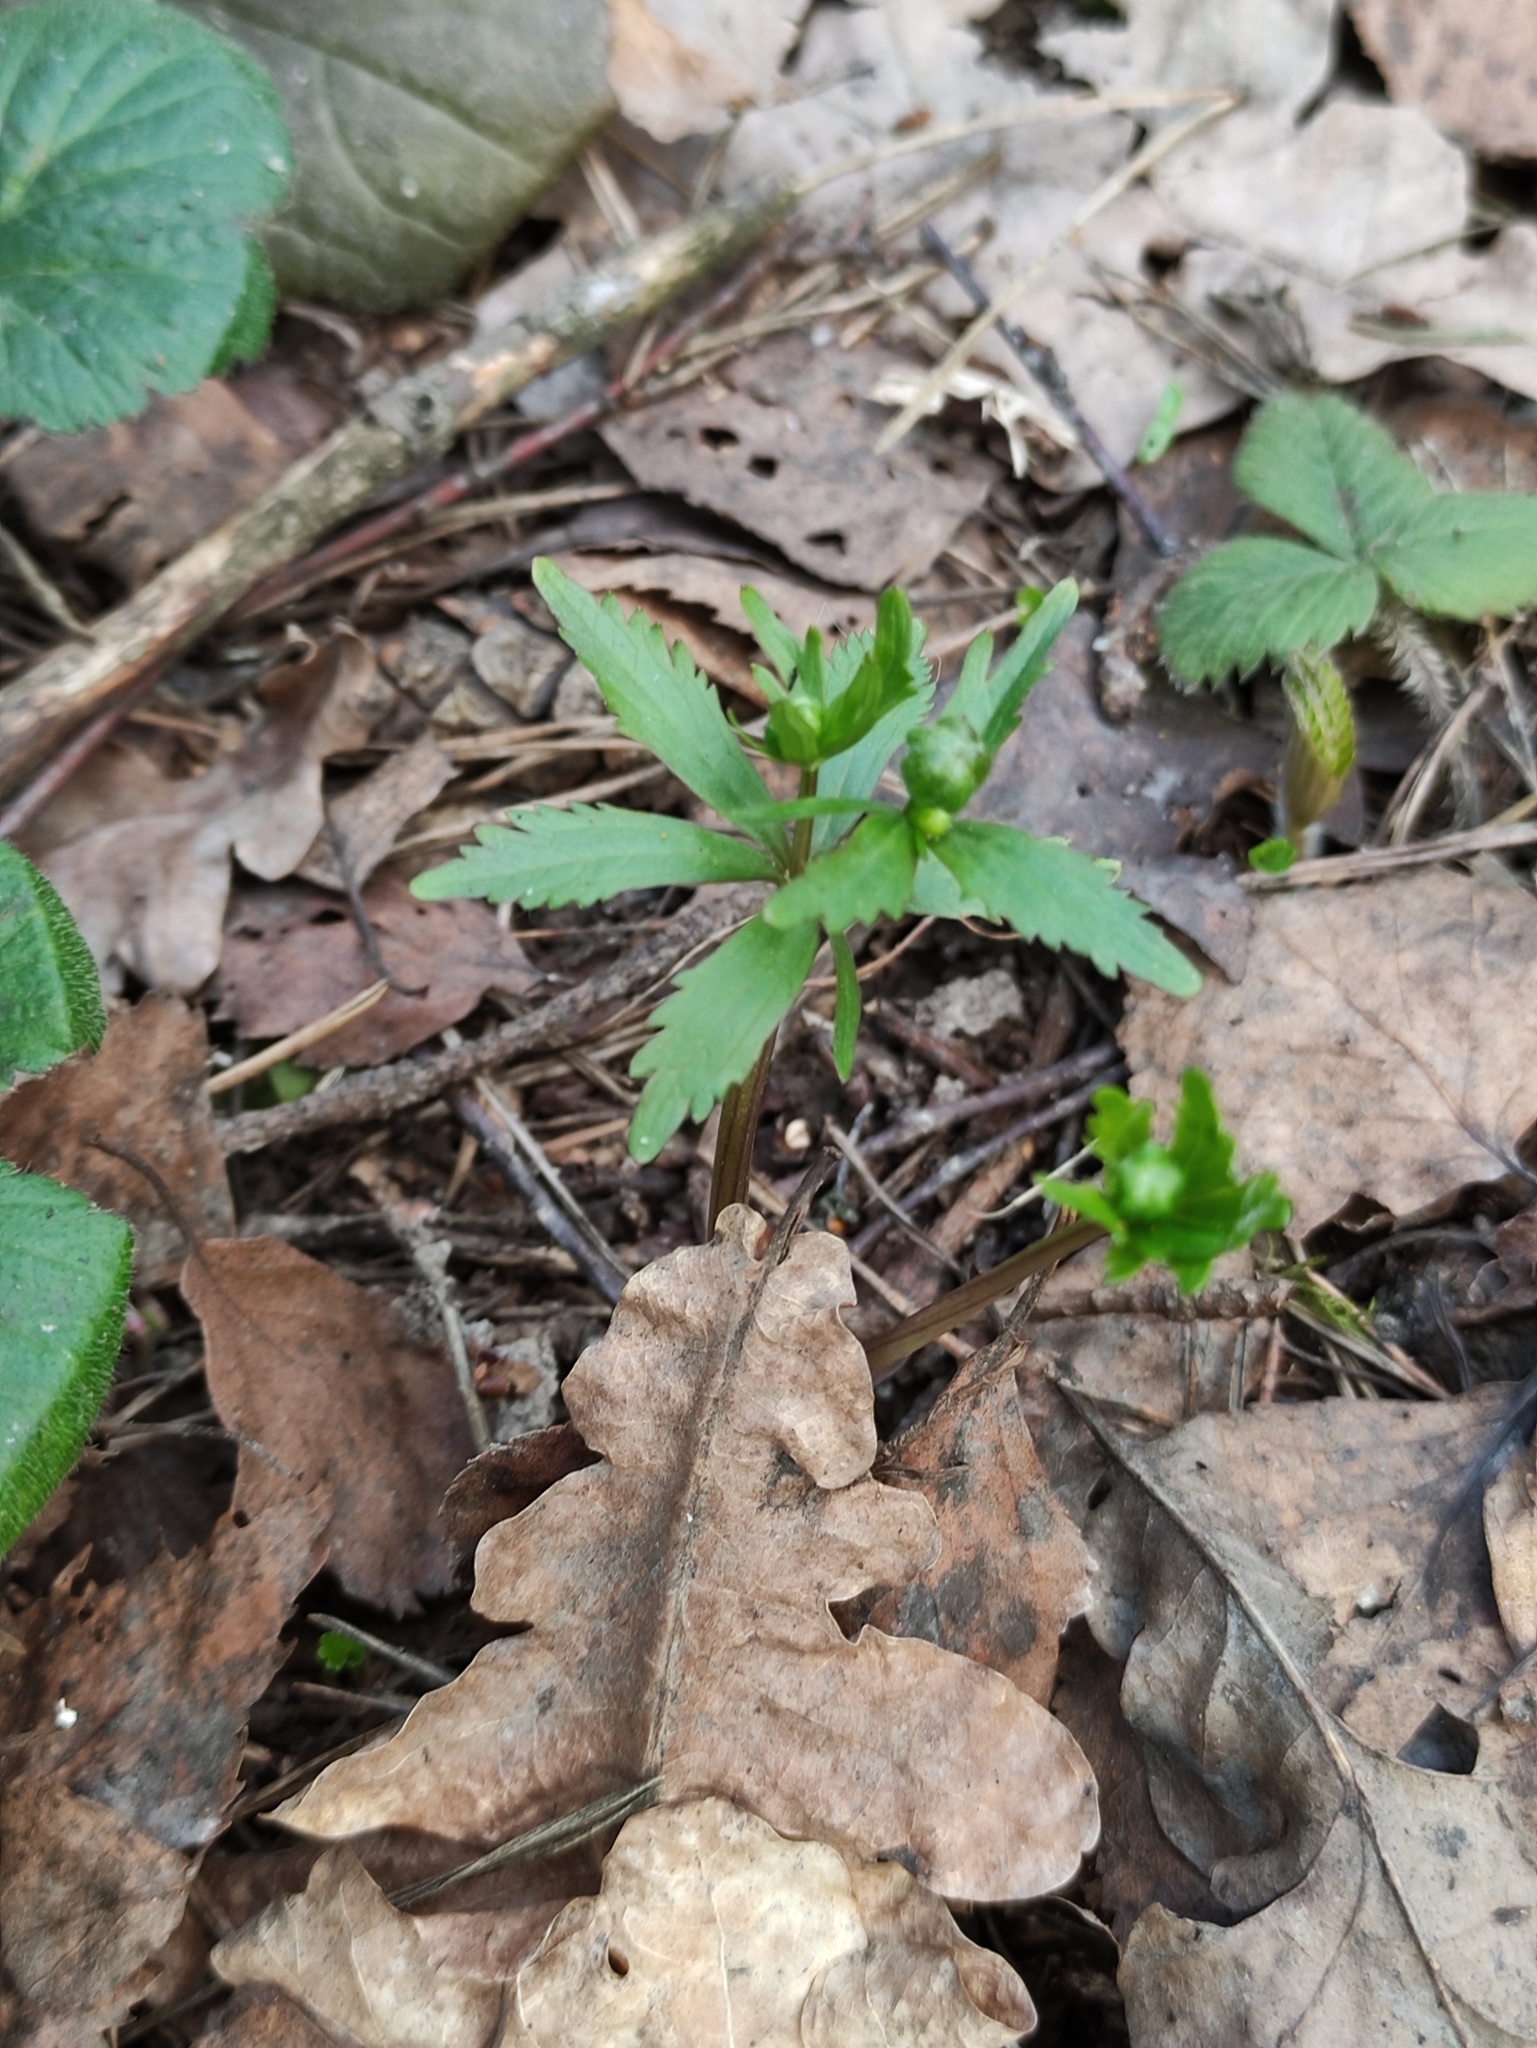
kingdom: Plantae
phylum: Tracheophyta
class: Magnoliopsida
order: Ranunculales
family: Ranunculaceae
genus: Ranunculus
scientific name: Ranunculus cassubicus
